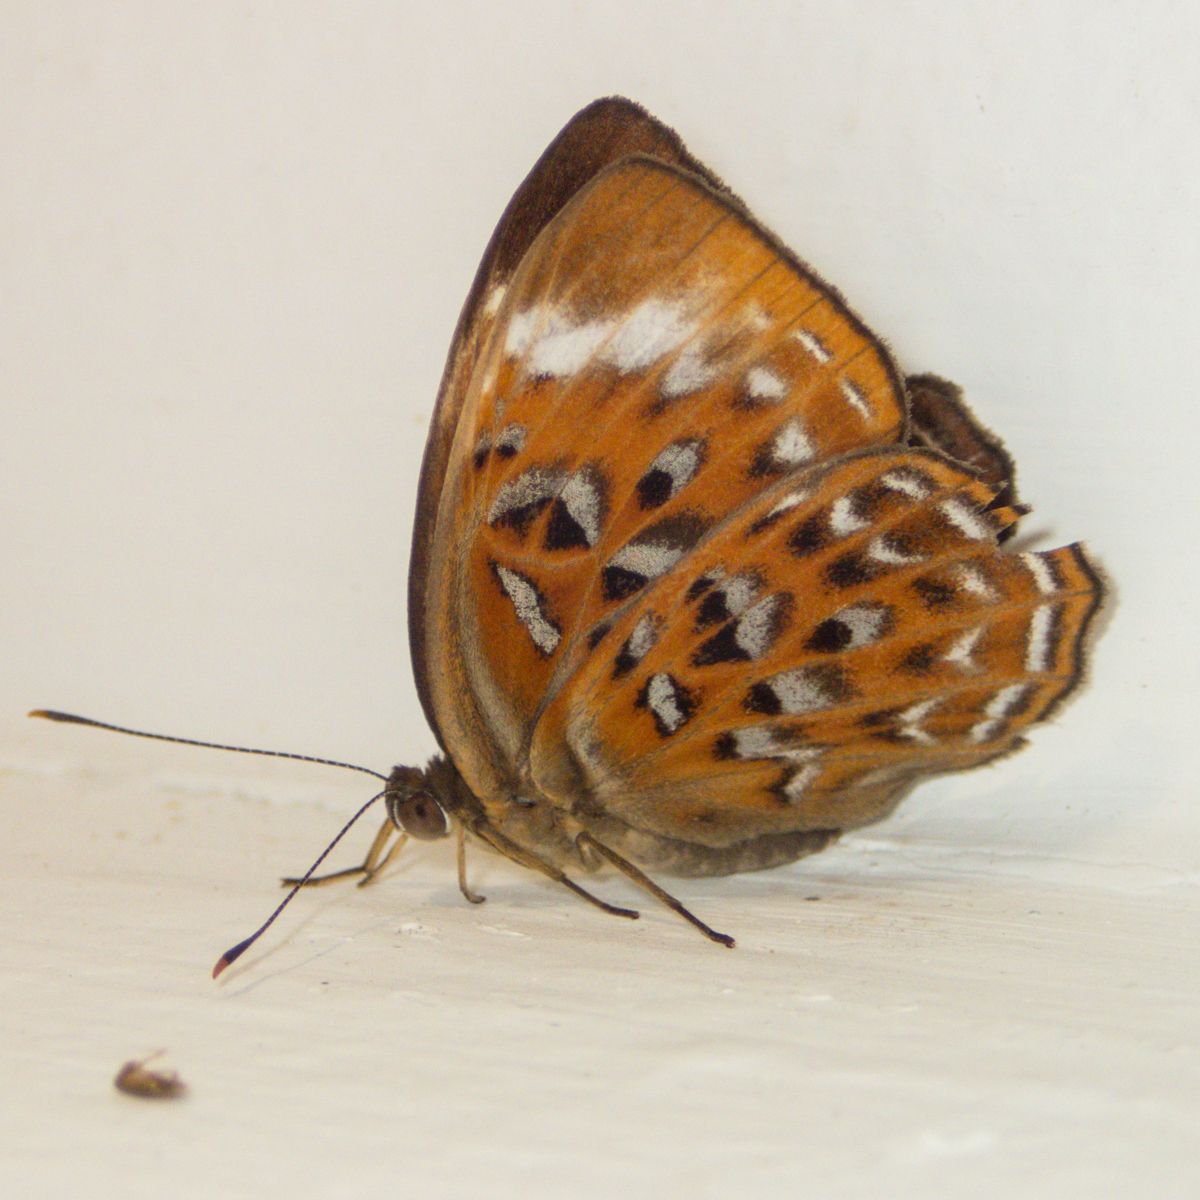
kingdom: Animalia
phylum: Arthropoda
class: Insecta
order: Lepidoptera
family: Erebidae
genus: Dysschema
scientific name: Dysschema
